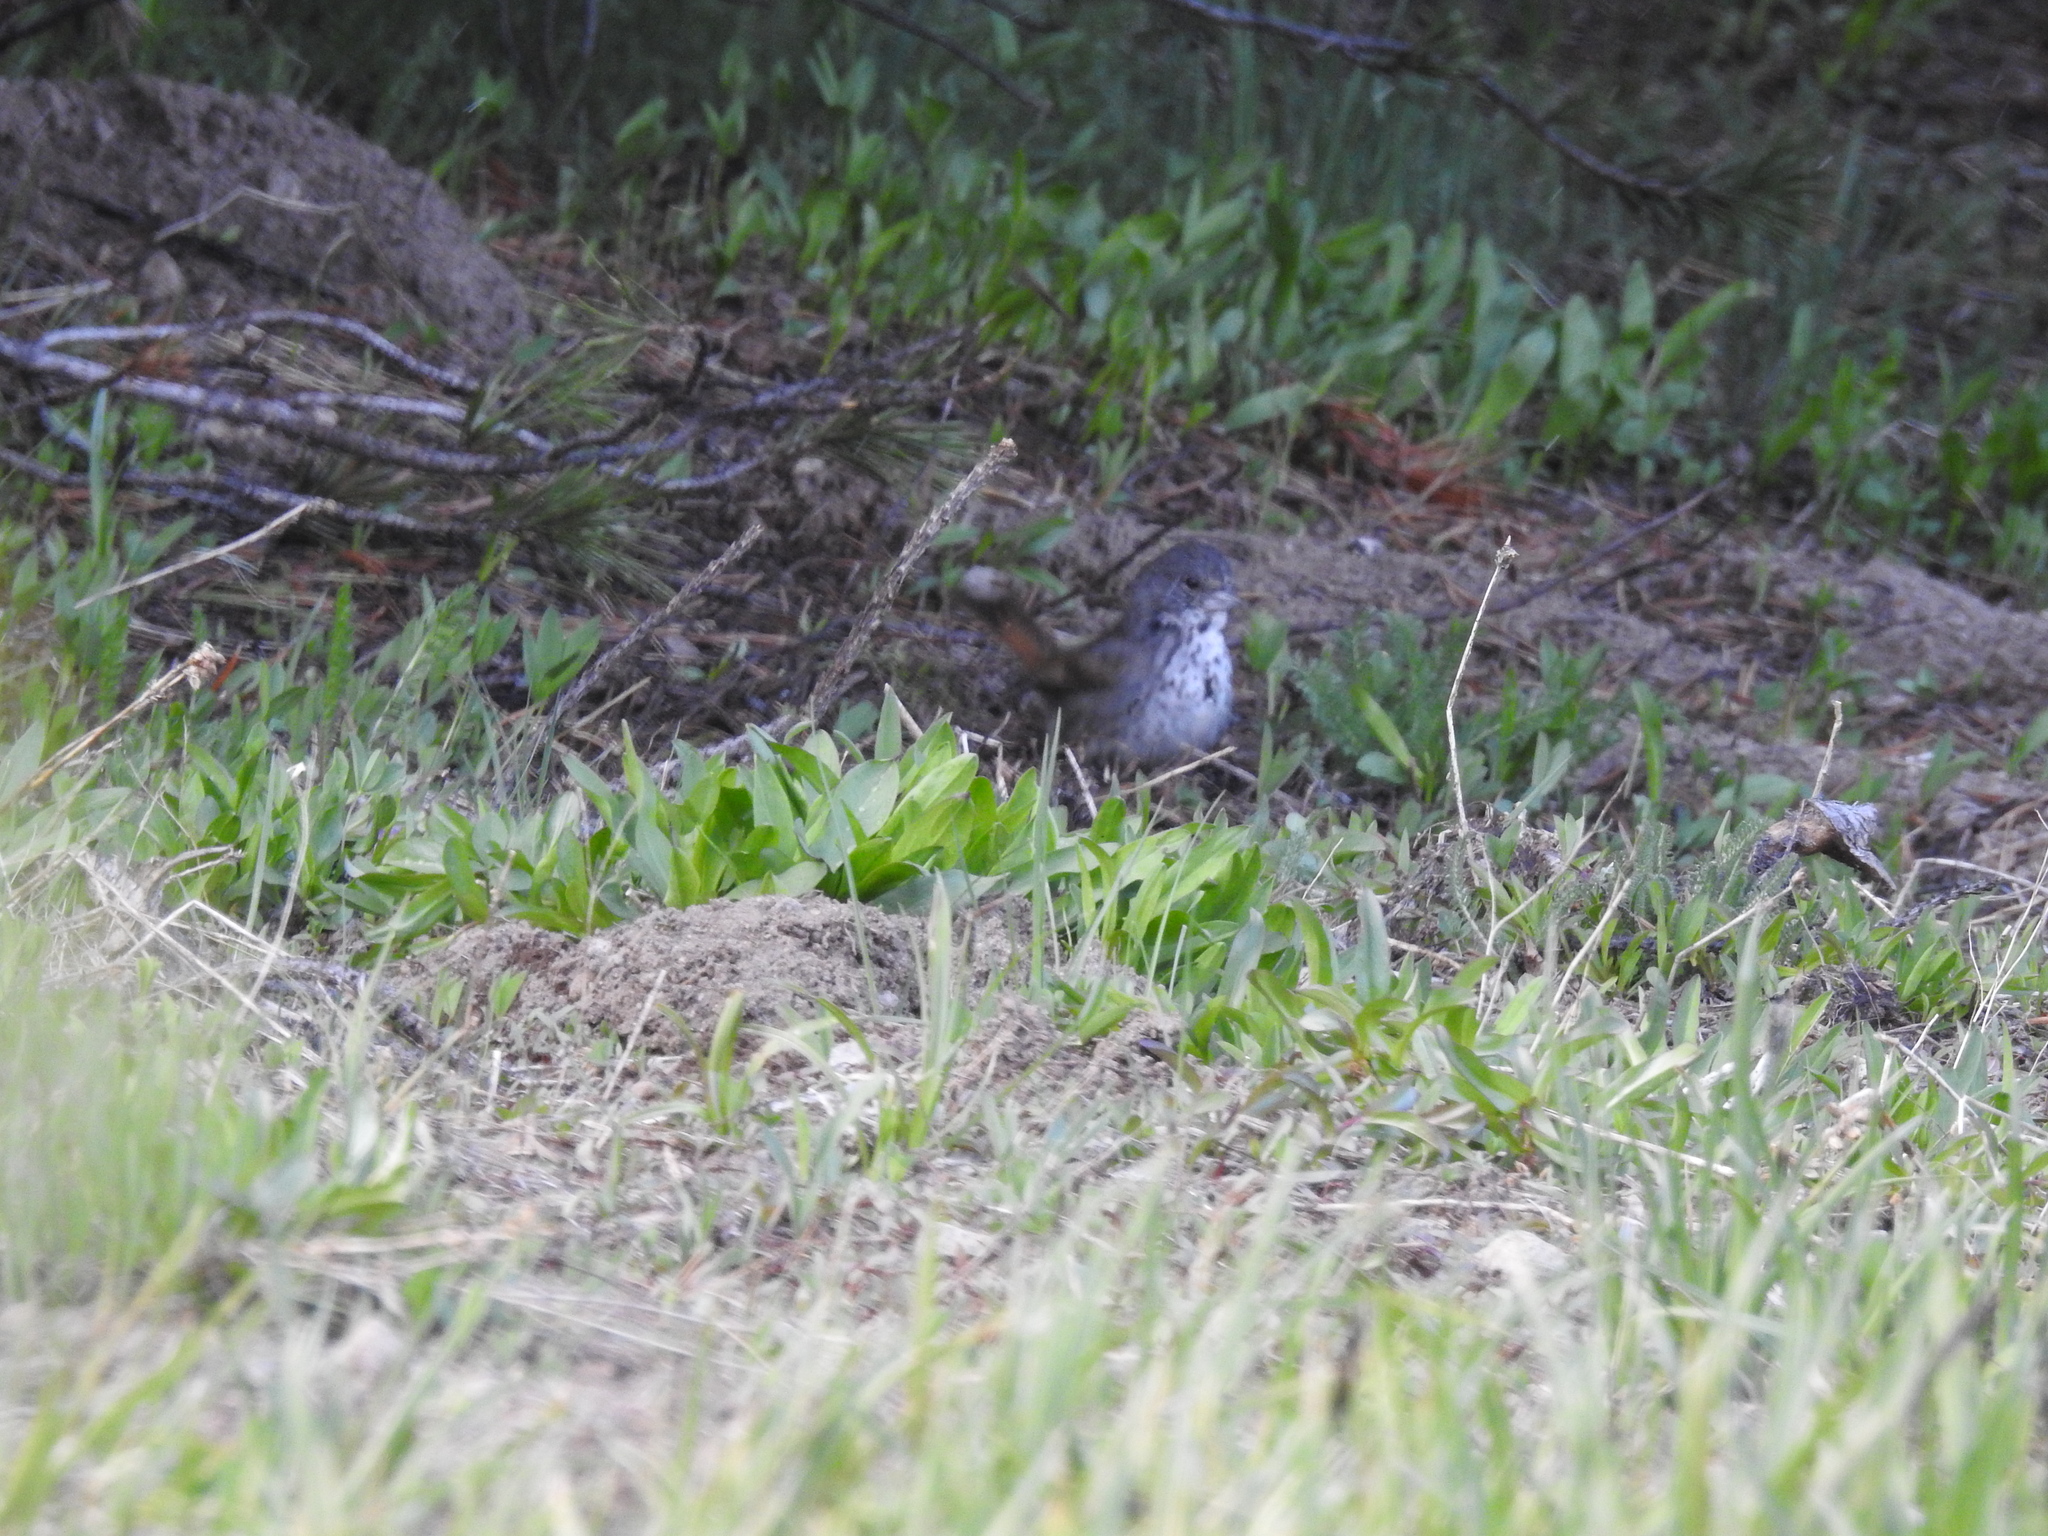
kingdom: Animalia
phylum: Chordata
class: Aves
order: Passeriformes
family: Passerellidae
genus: Passerella
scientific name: Passerella iliaca
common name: Fox sparrow
